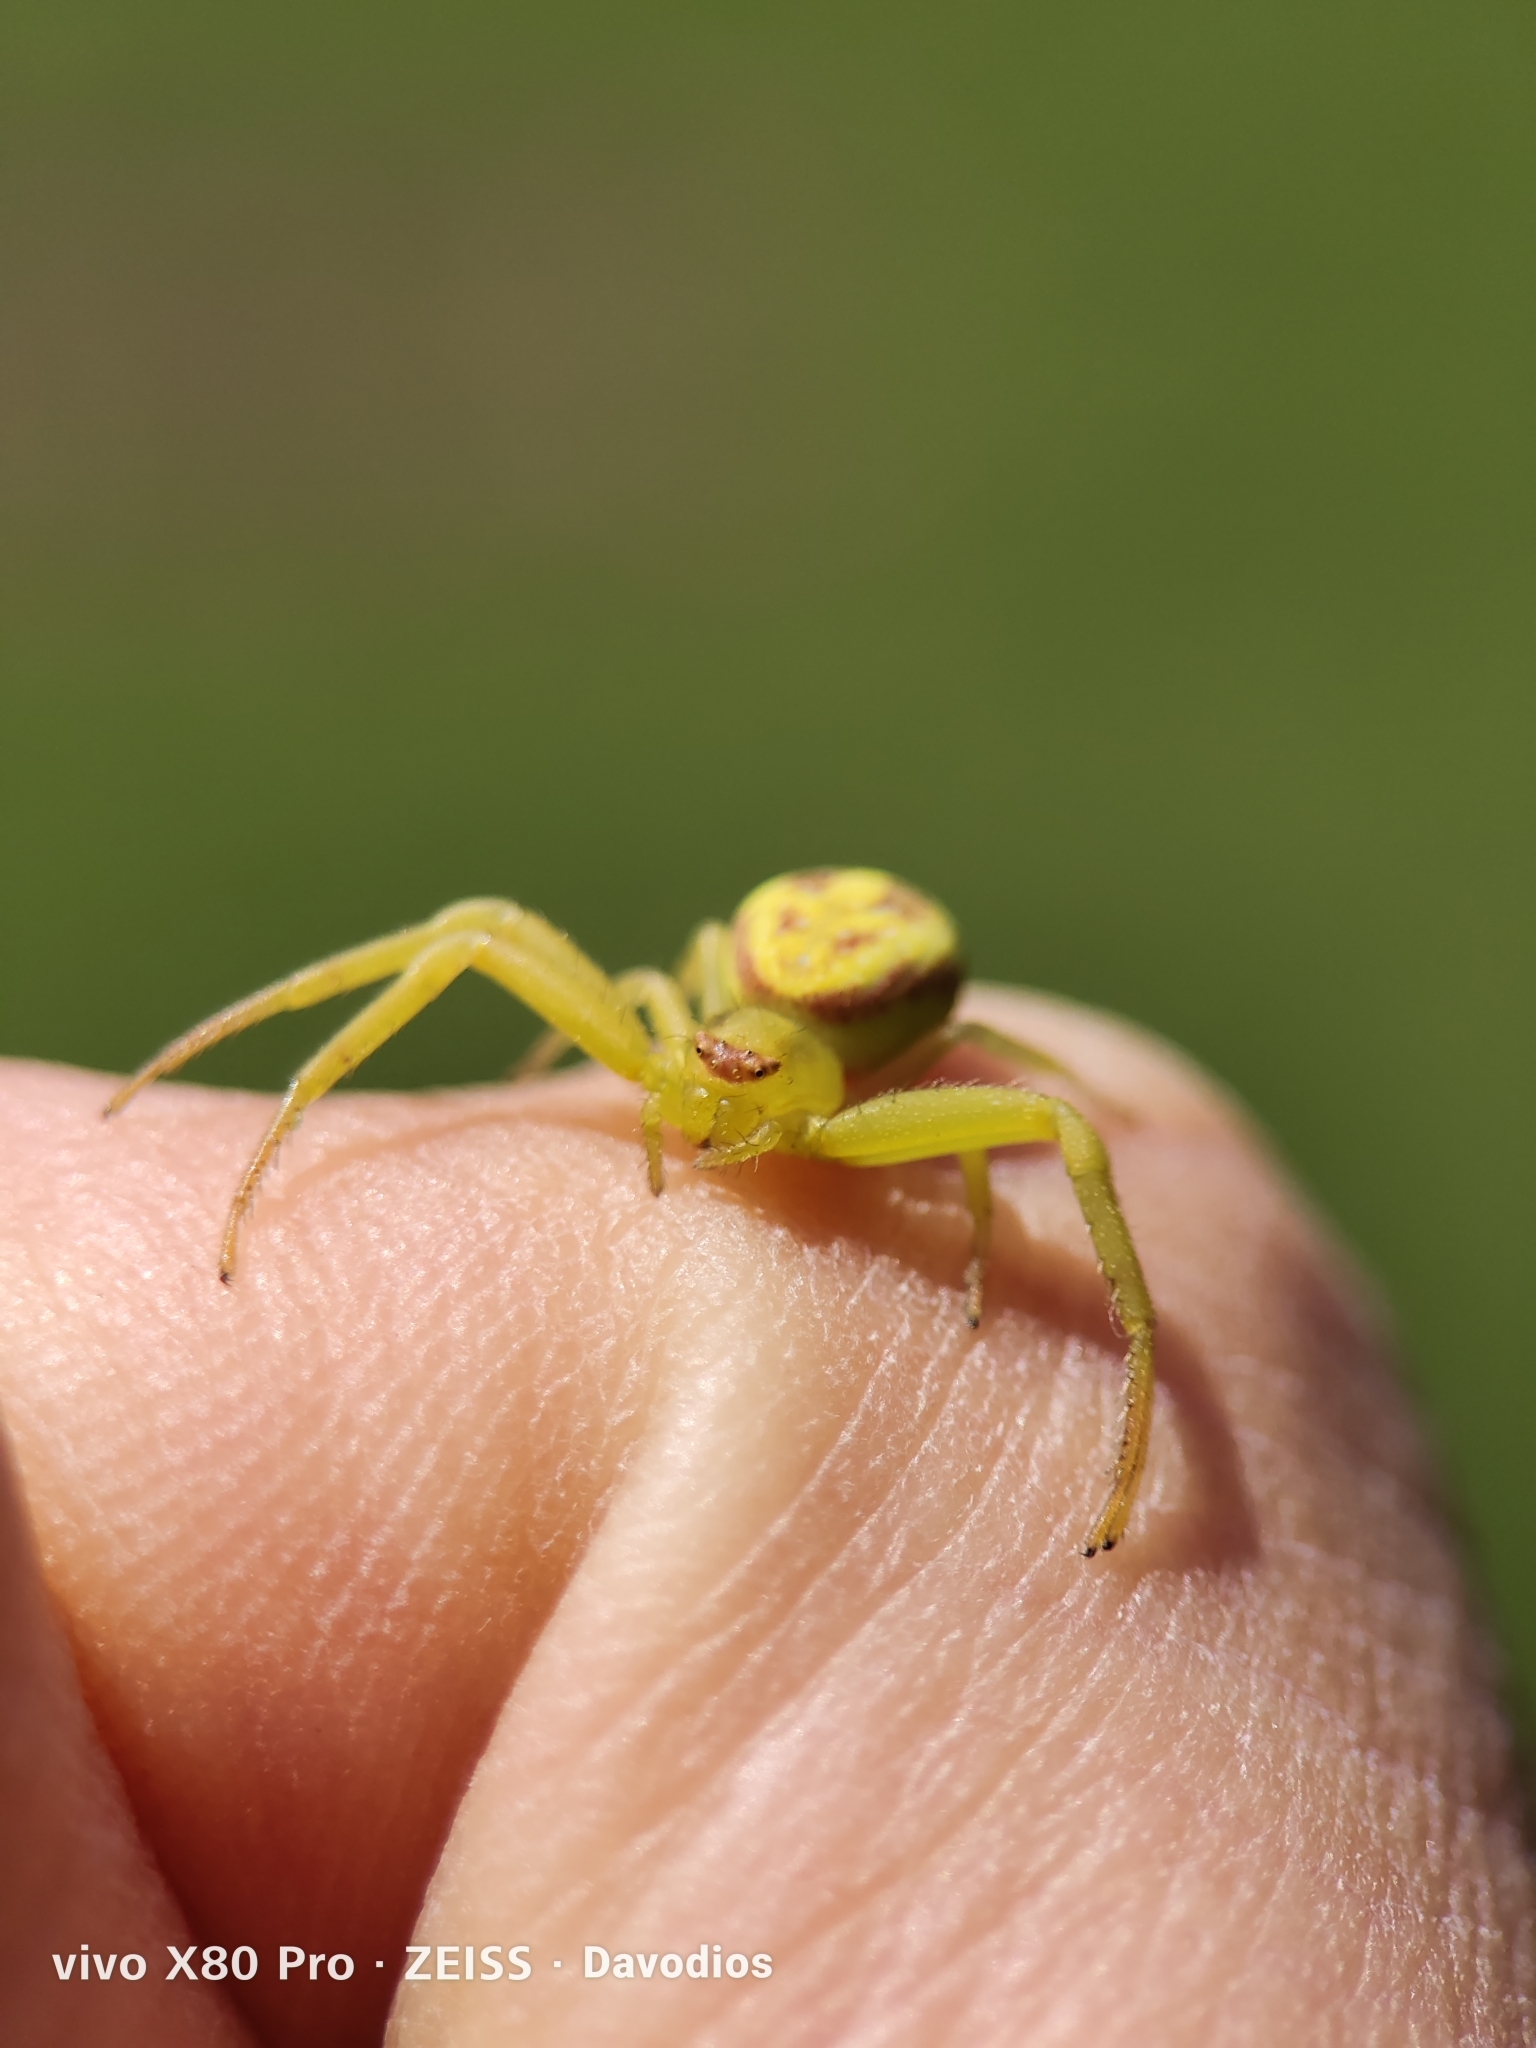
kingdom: Animalia
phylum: Arthropoda
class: Arachnida
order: Araneae
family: Thomisidae
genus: Misumenops
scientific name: Misumenops
